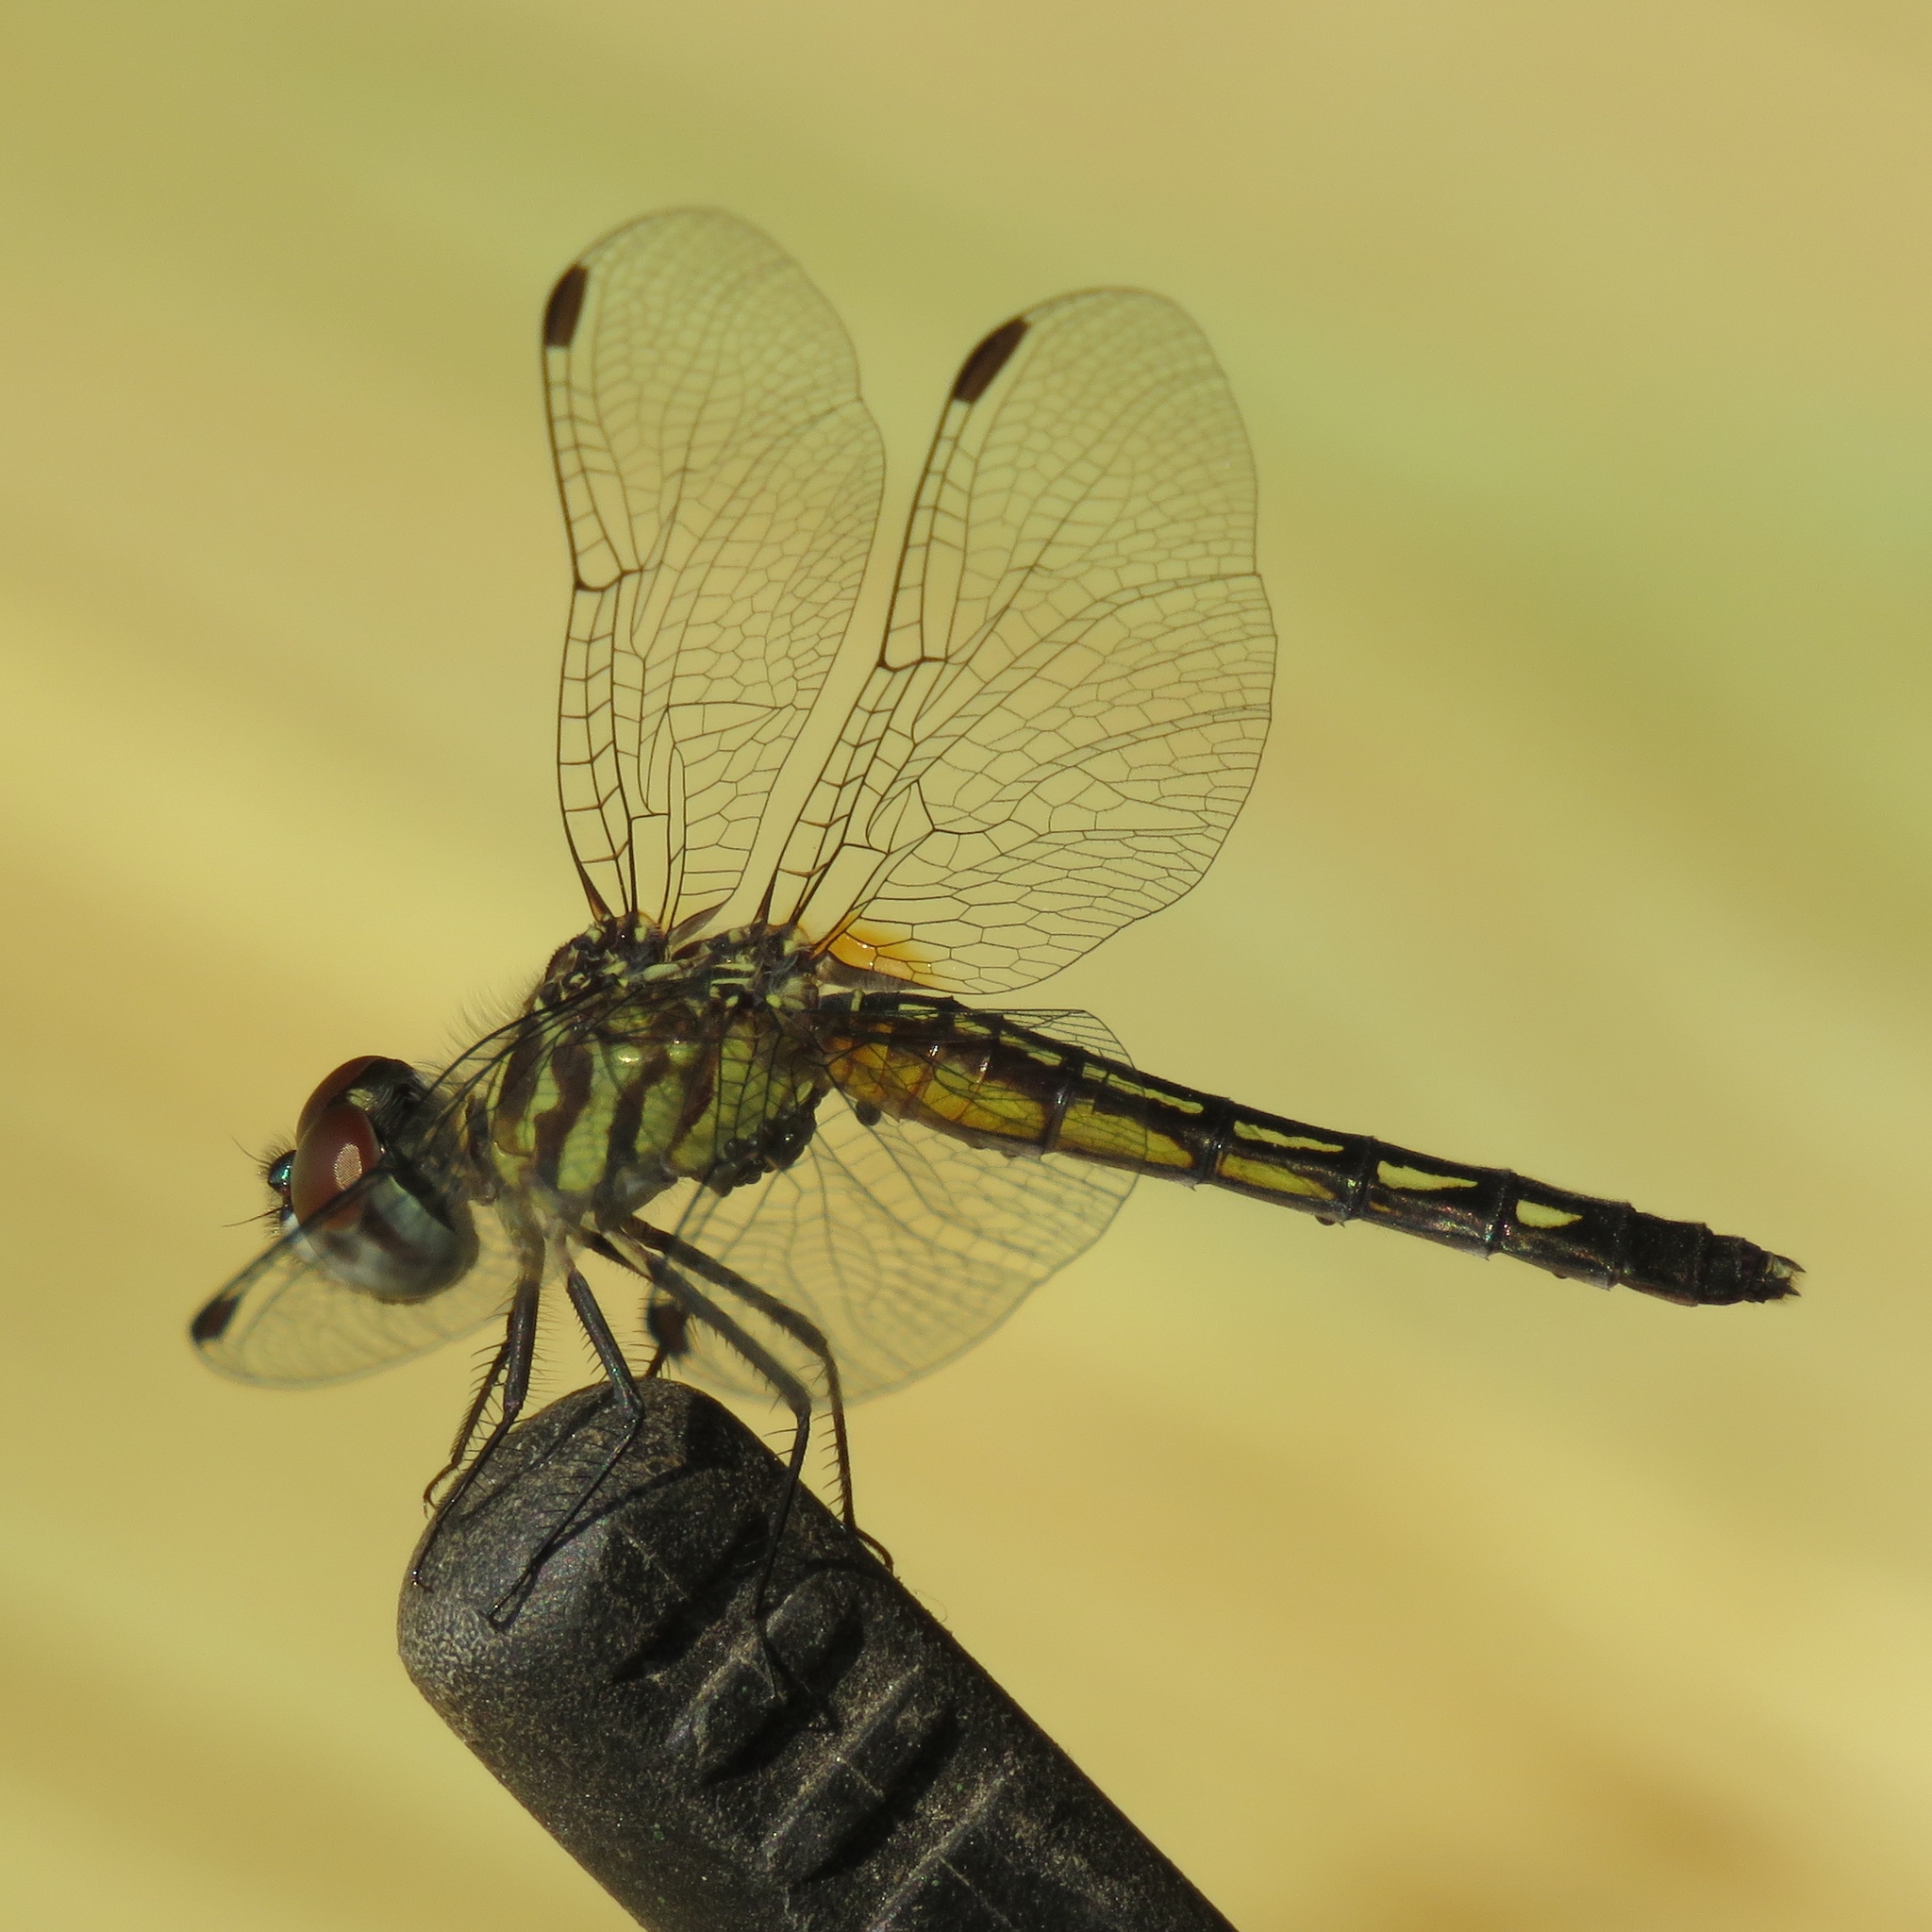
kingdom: Animalia
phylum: Arthropoda
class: Insecta
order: Odonata
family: Libellulidae
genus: Pachydiplax
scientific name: Pachydiplax longipennis
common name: Blue dasher
